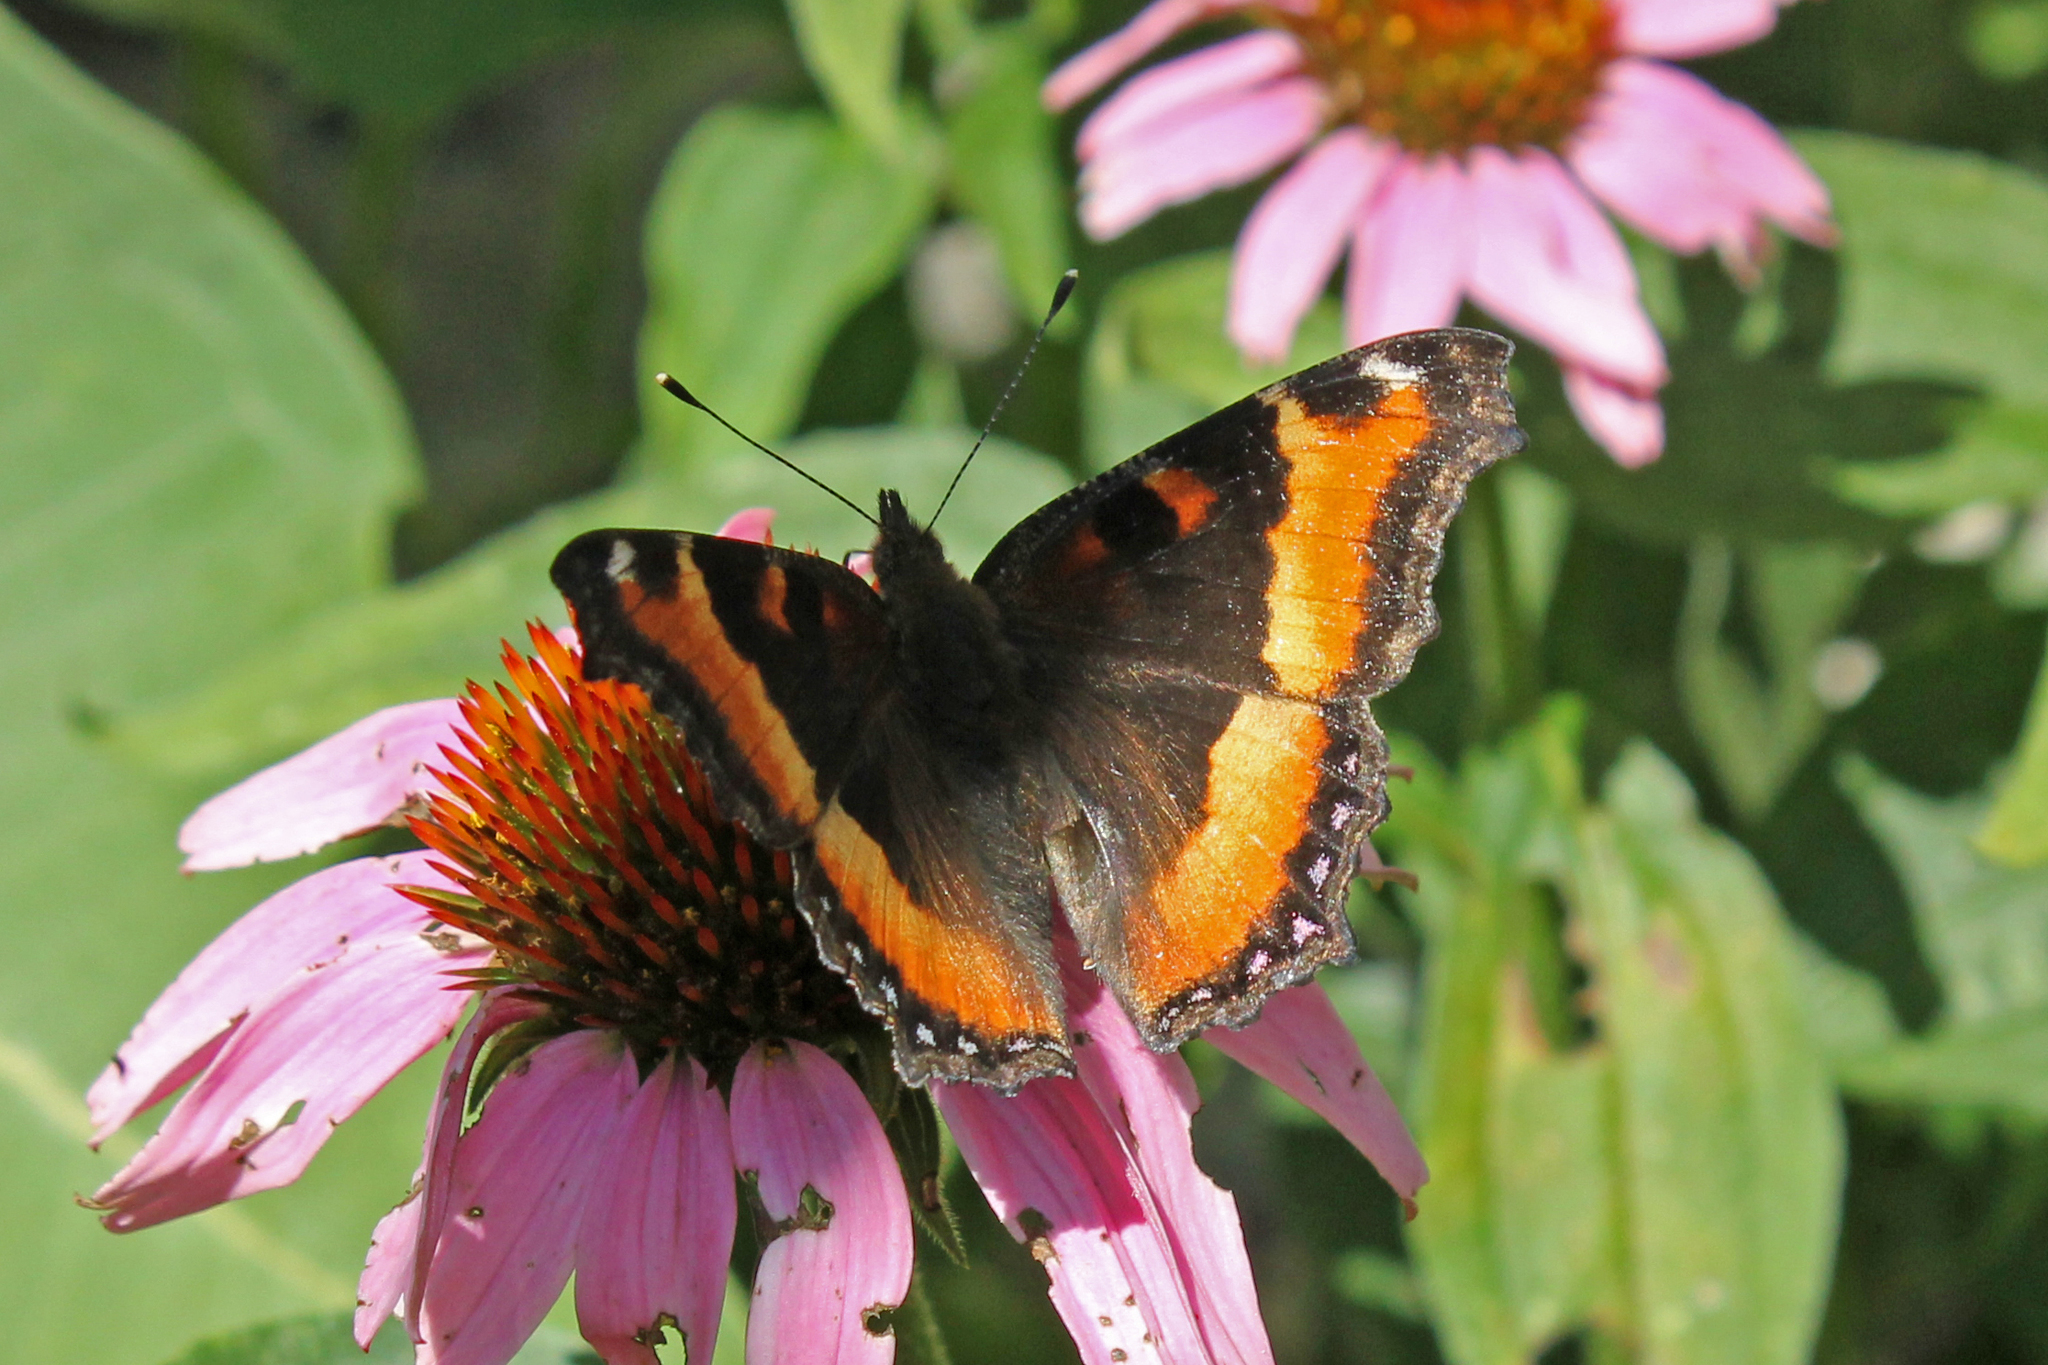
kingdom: Animalia
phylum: Arthropoda
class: Insecta
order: Lepidoptera
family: Nymphalidae
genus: Aglais
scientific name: Aglais milberti
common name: Milbert's tortoiseshell
